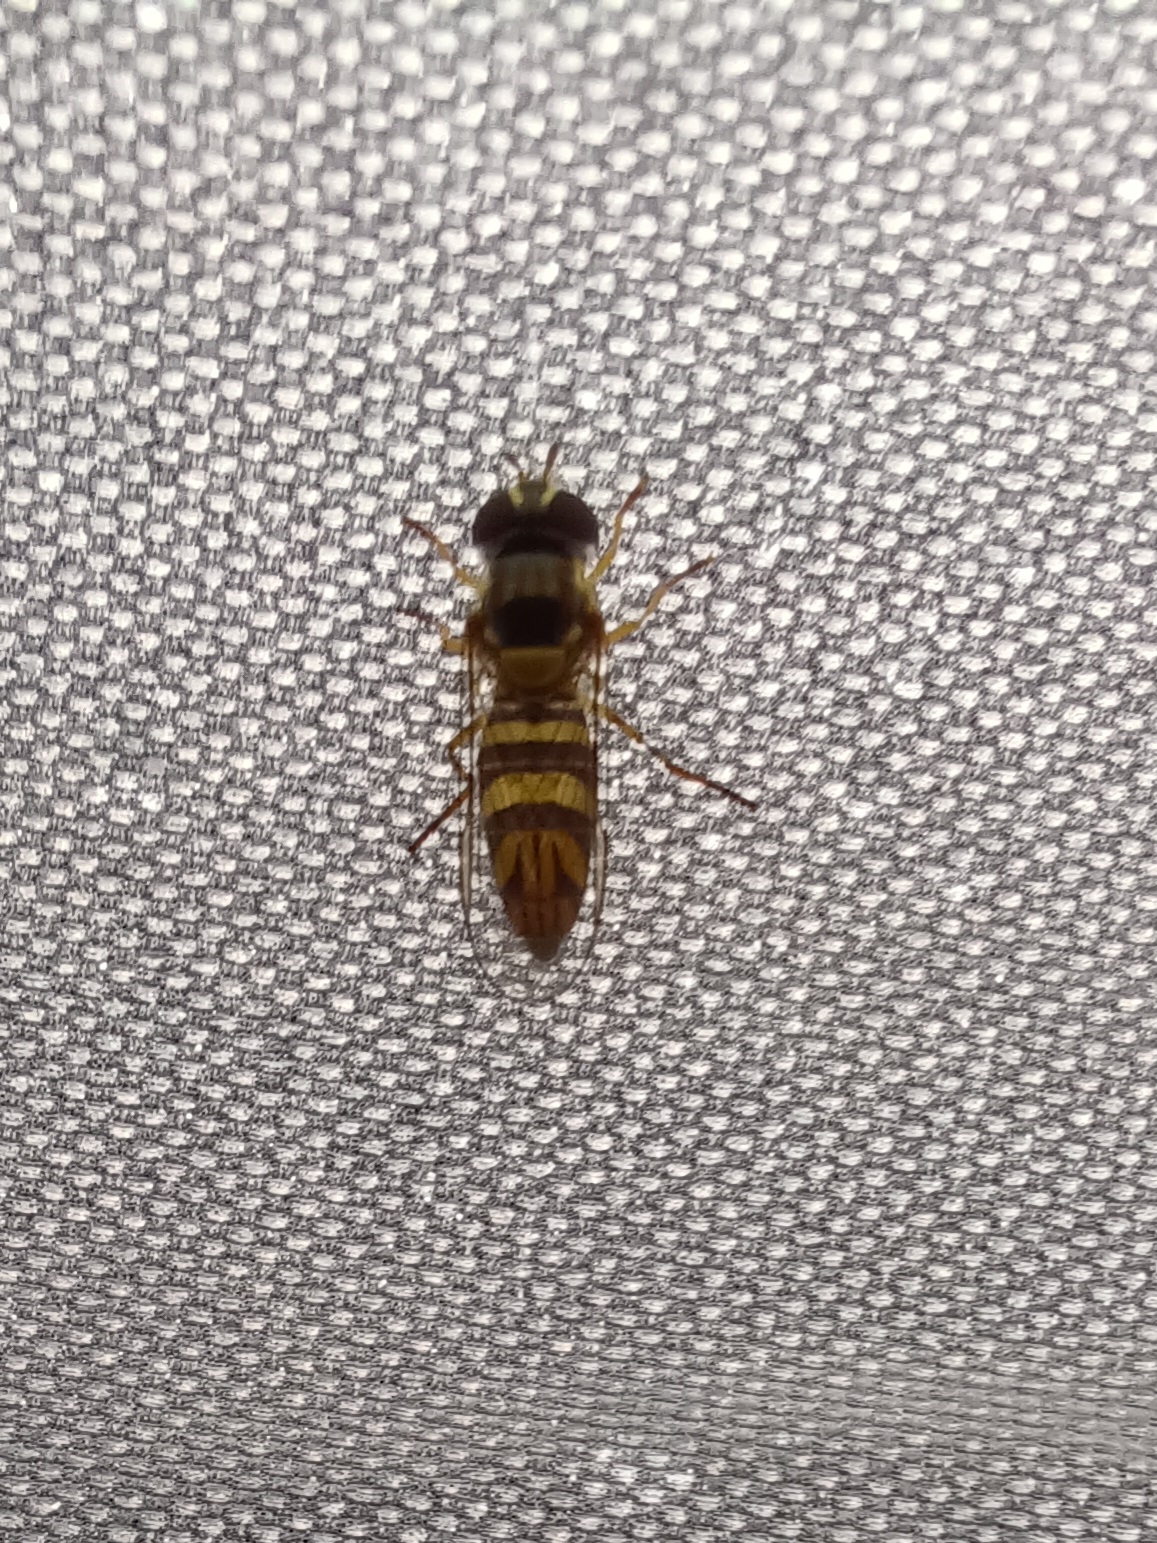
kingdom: Animalia
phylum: Arthropoda
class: Insecta
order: Diptera
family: Syrphidae
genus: Allograpta
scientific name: Allograpta obliqua
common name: Common oblique syrphid
